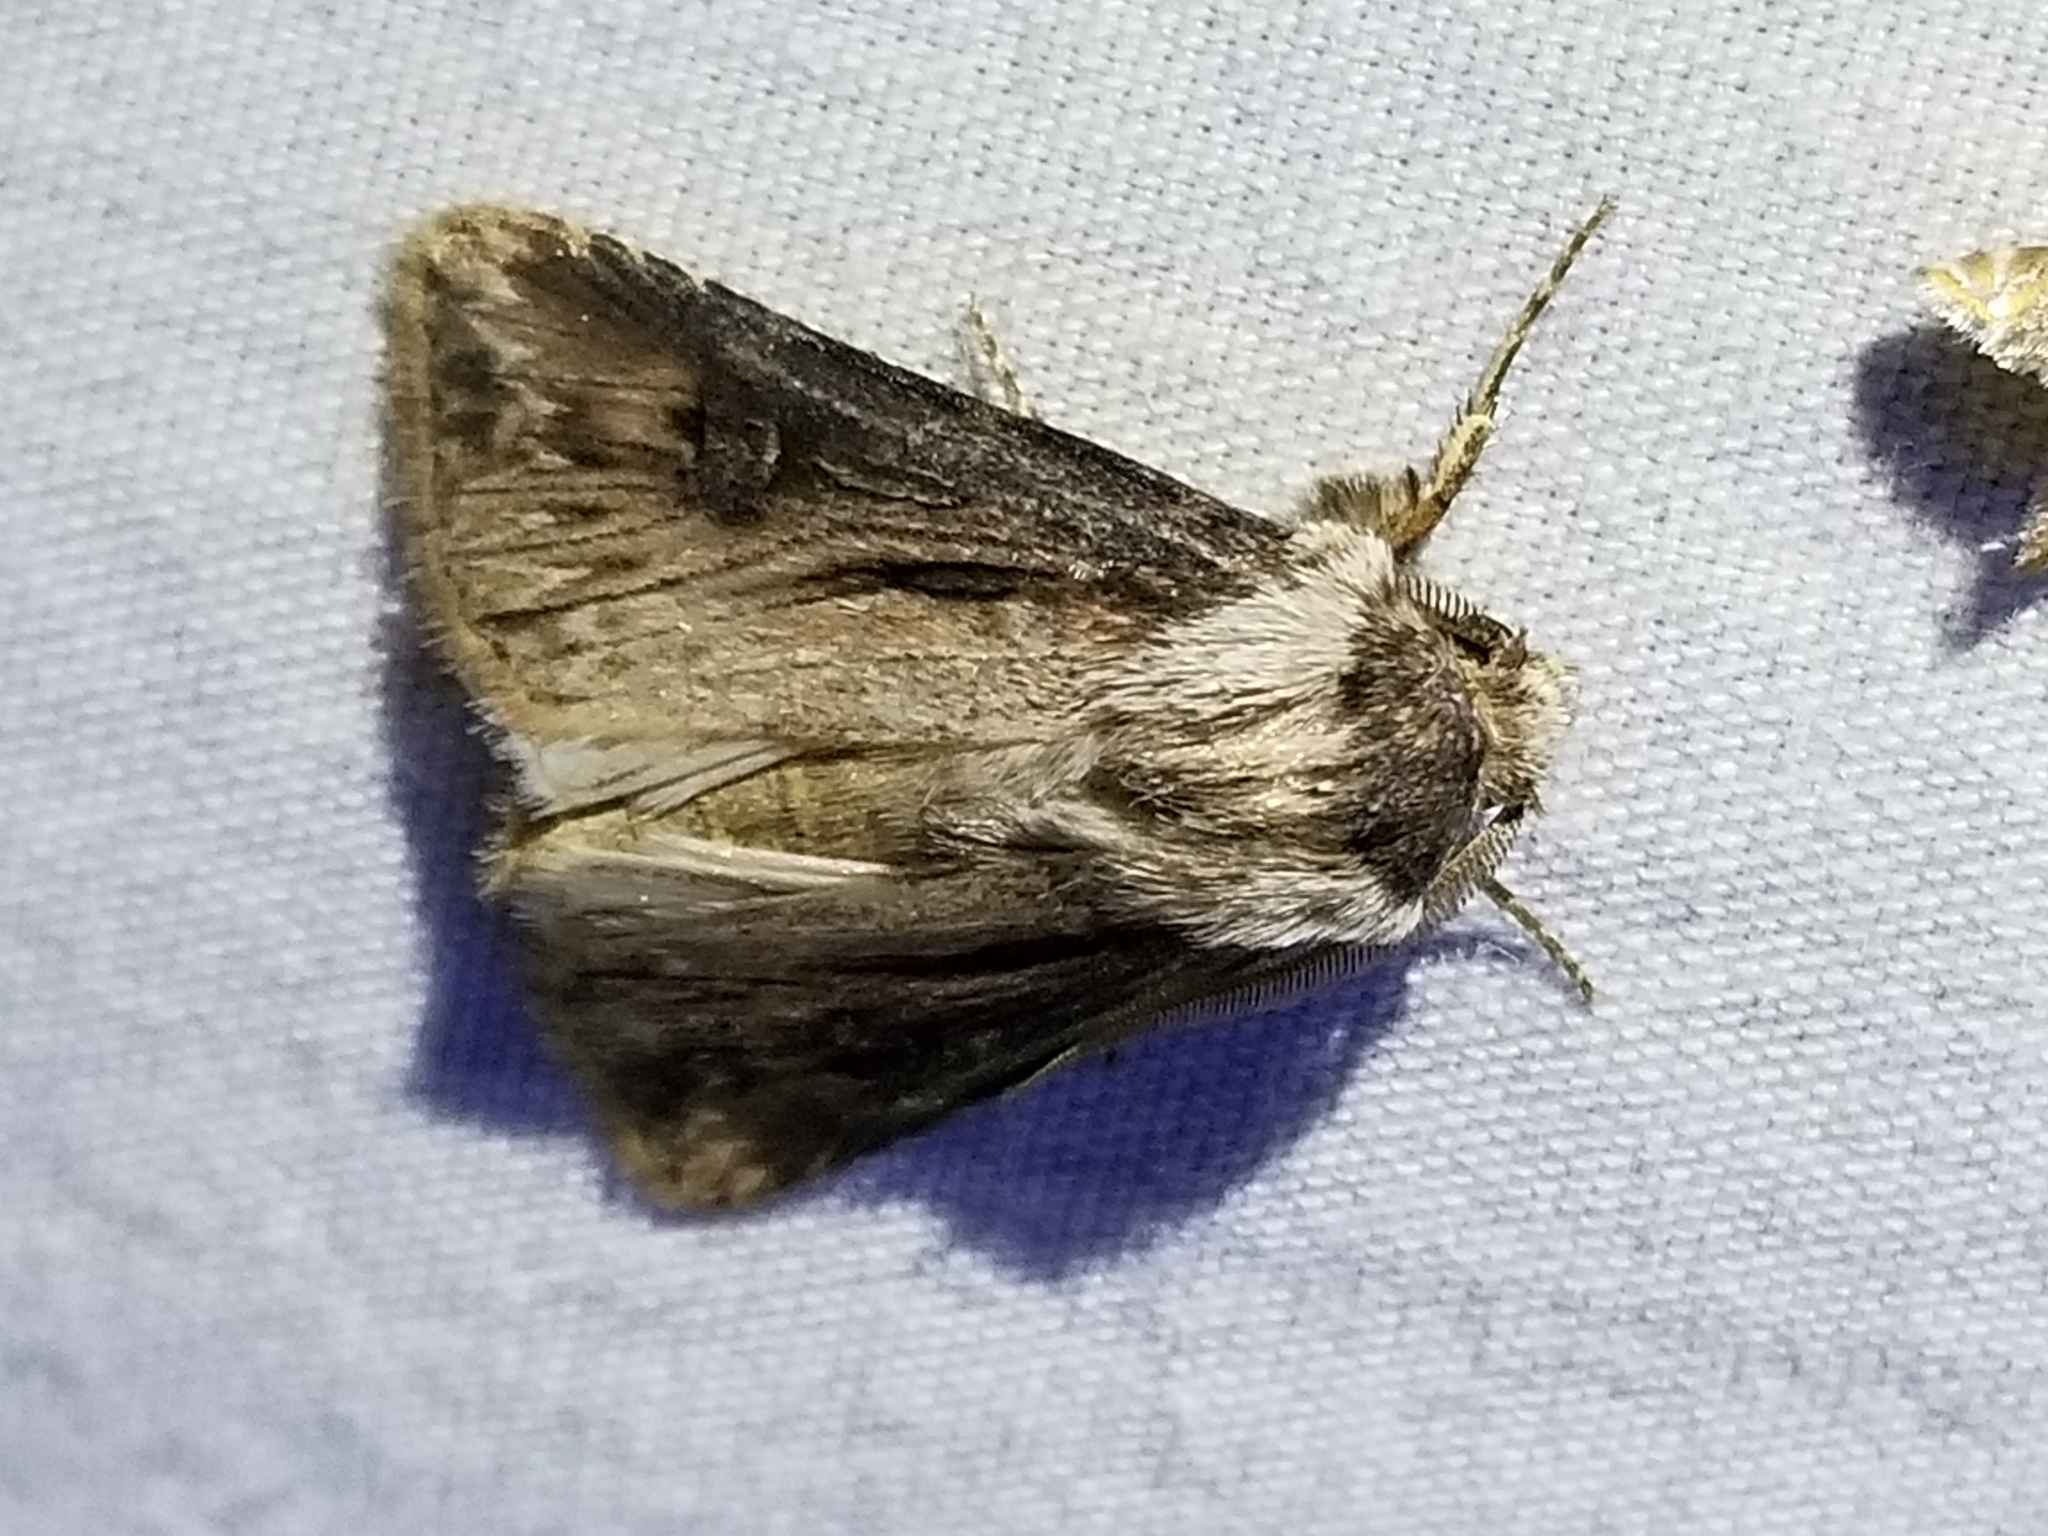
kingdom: Animalia
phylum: Arthropoda
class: Insecta
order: Lepidoptera
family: Noctuidae
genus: Agrotis
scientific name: Agrotis venerabilis
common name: Venerable dart
